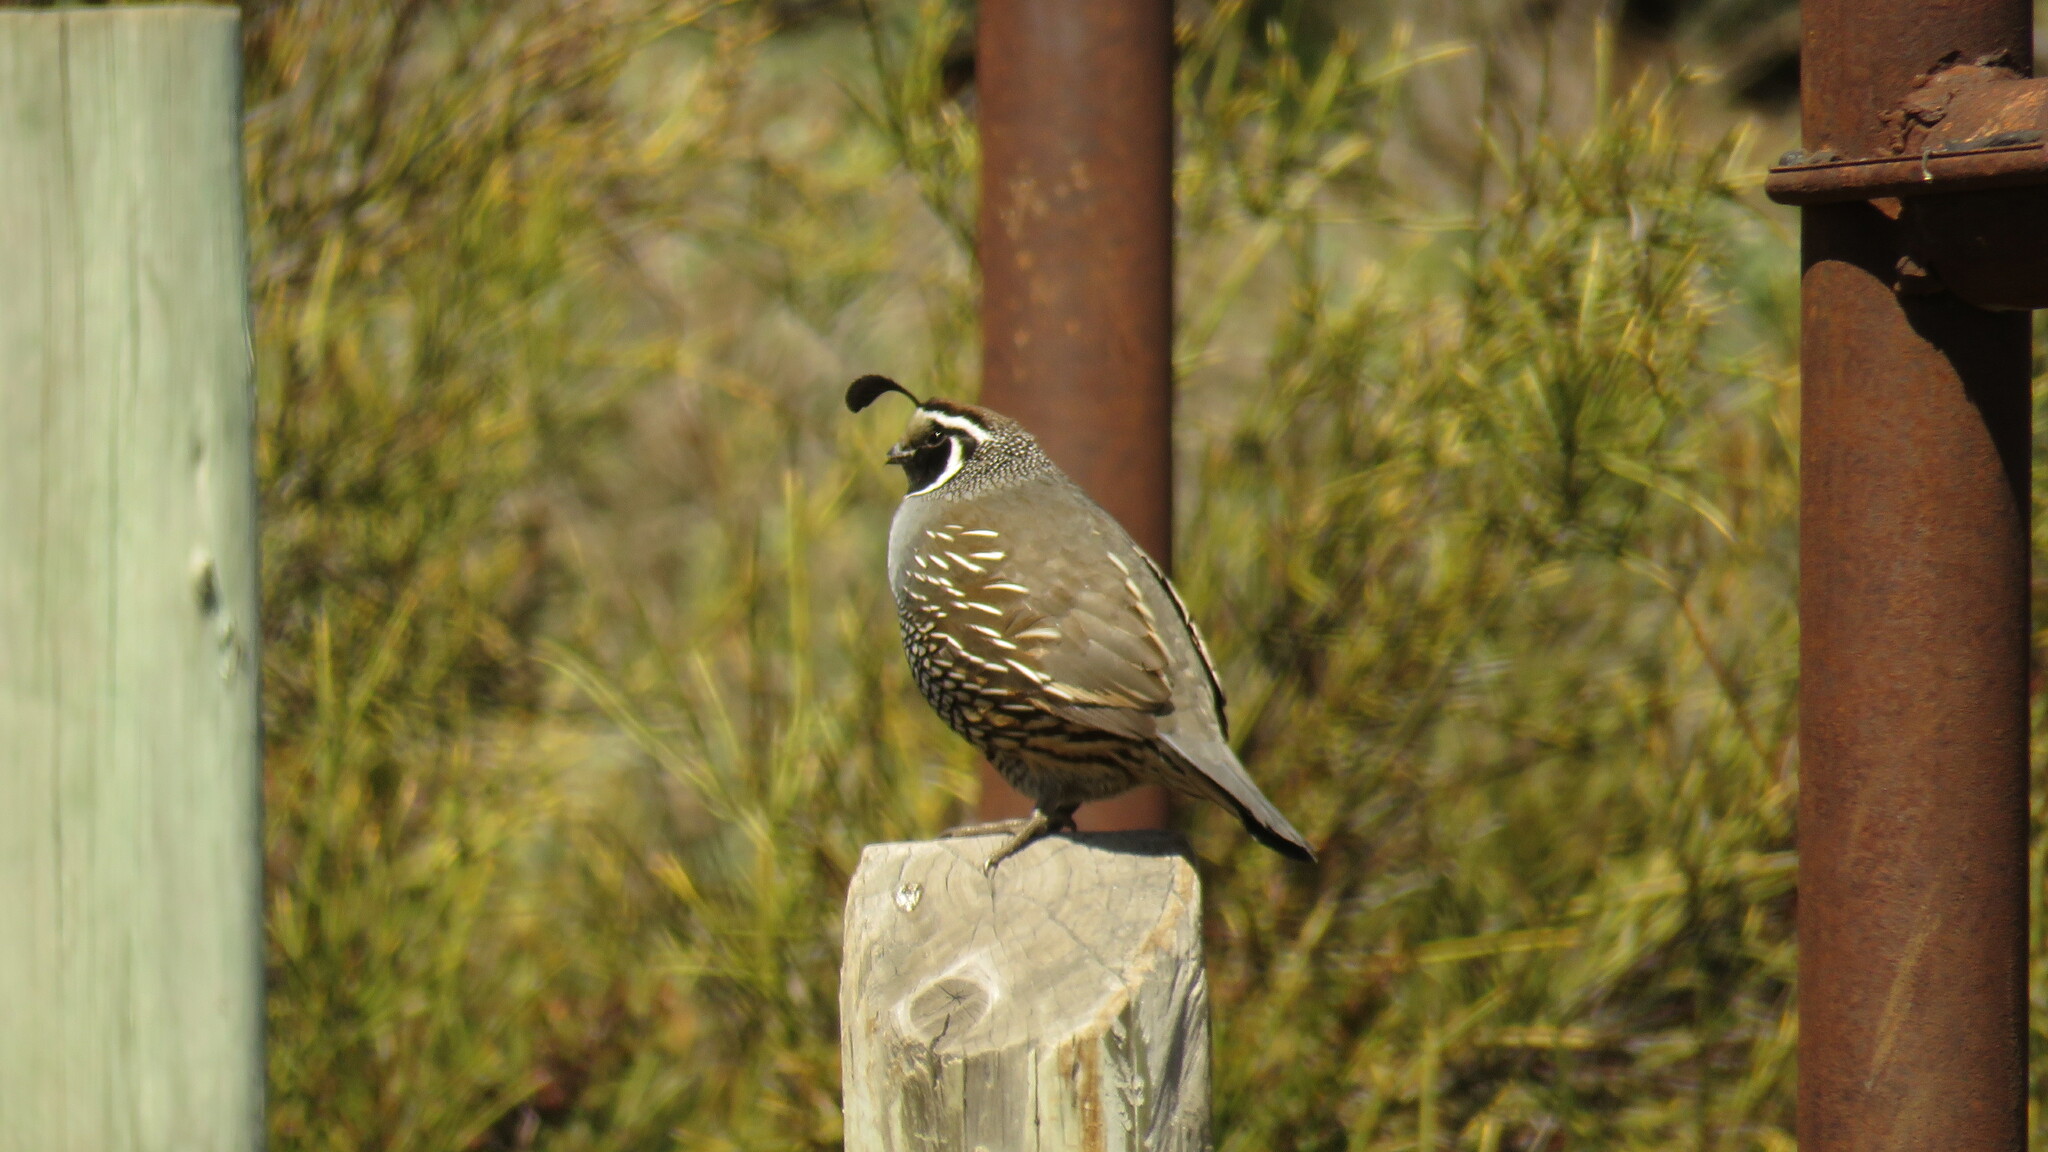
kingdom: Animalia
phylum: Chordata
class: Aves
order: Galliformes
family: Odontophoridae
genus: Callipepla
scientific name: Callipepla californica
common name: California quail
